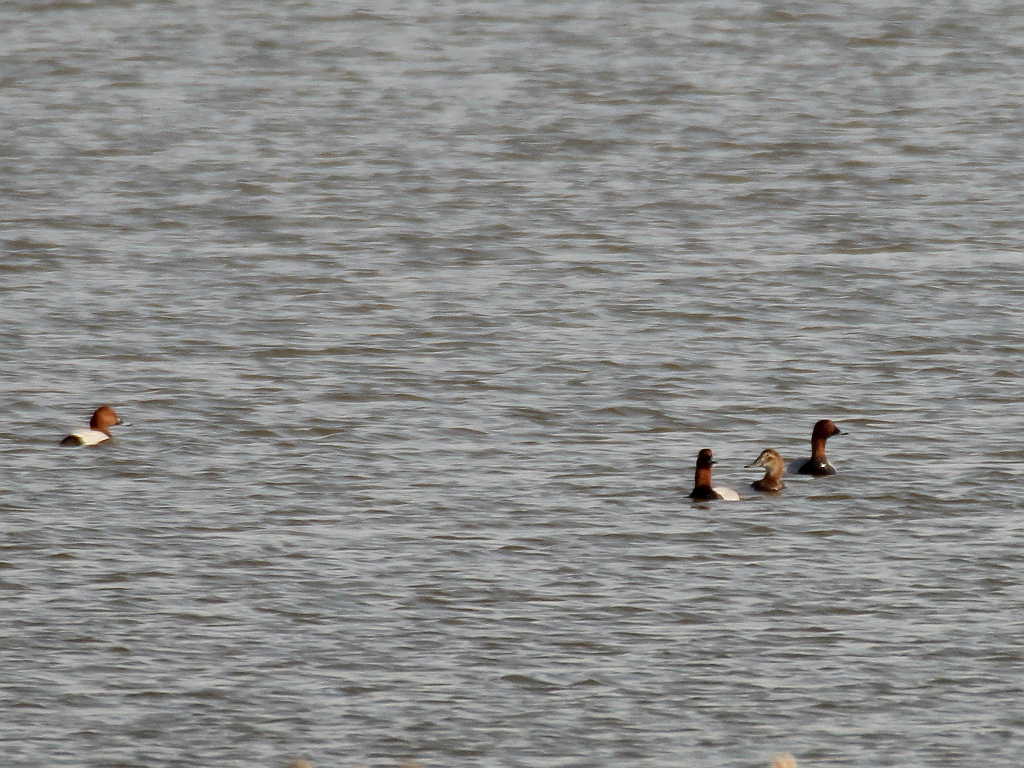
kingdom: Animalia
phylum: Chordata
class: Aves
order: Anseriformes
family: Anatidae
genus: Aythya
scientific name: Aythya ferina
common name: Common pochard
